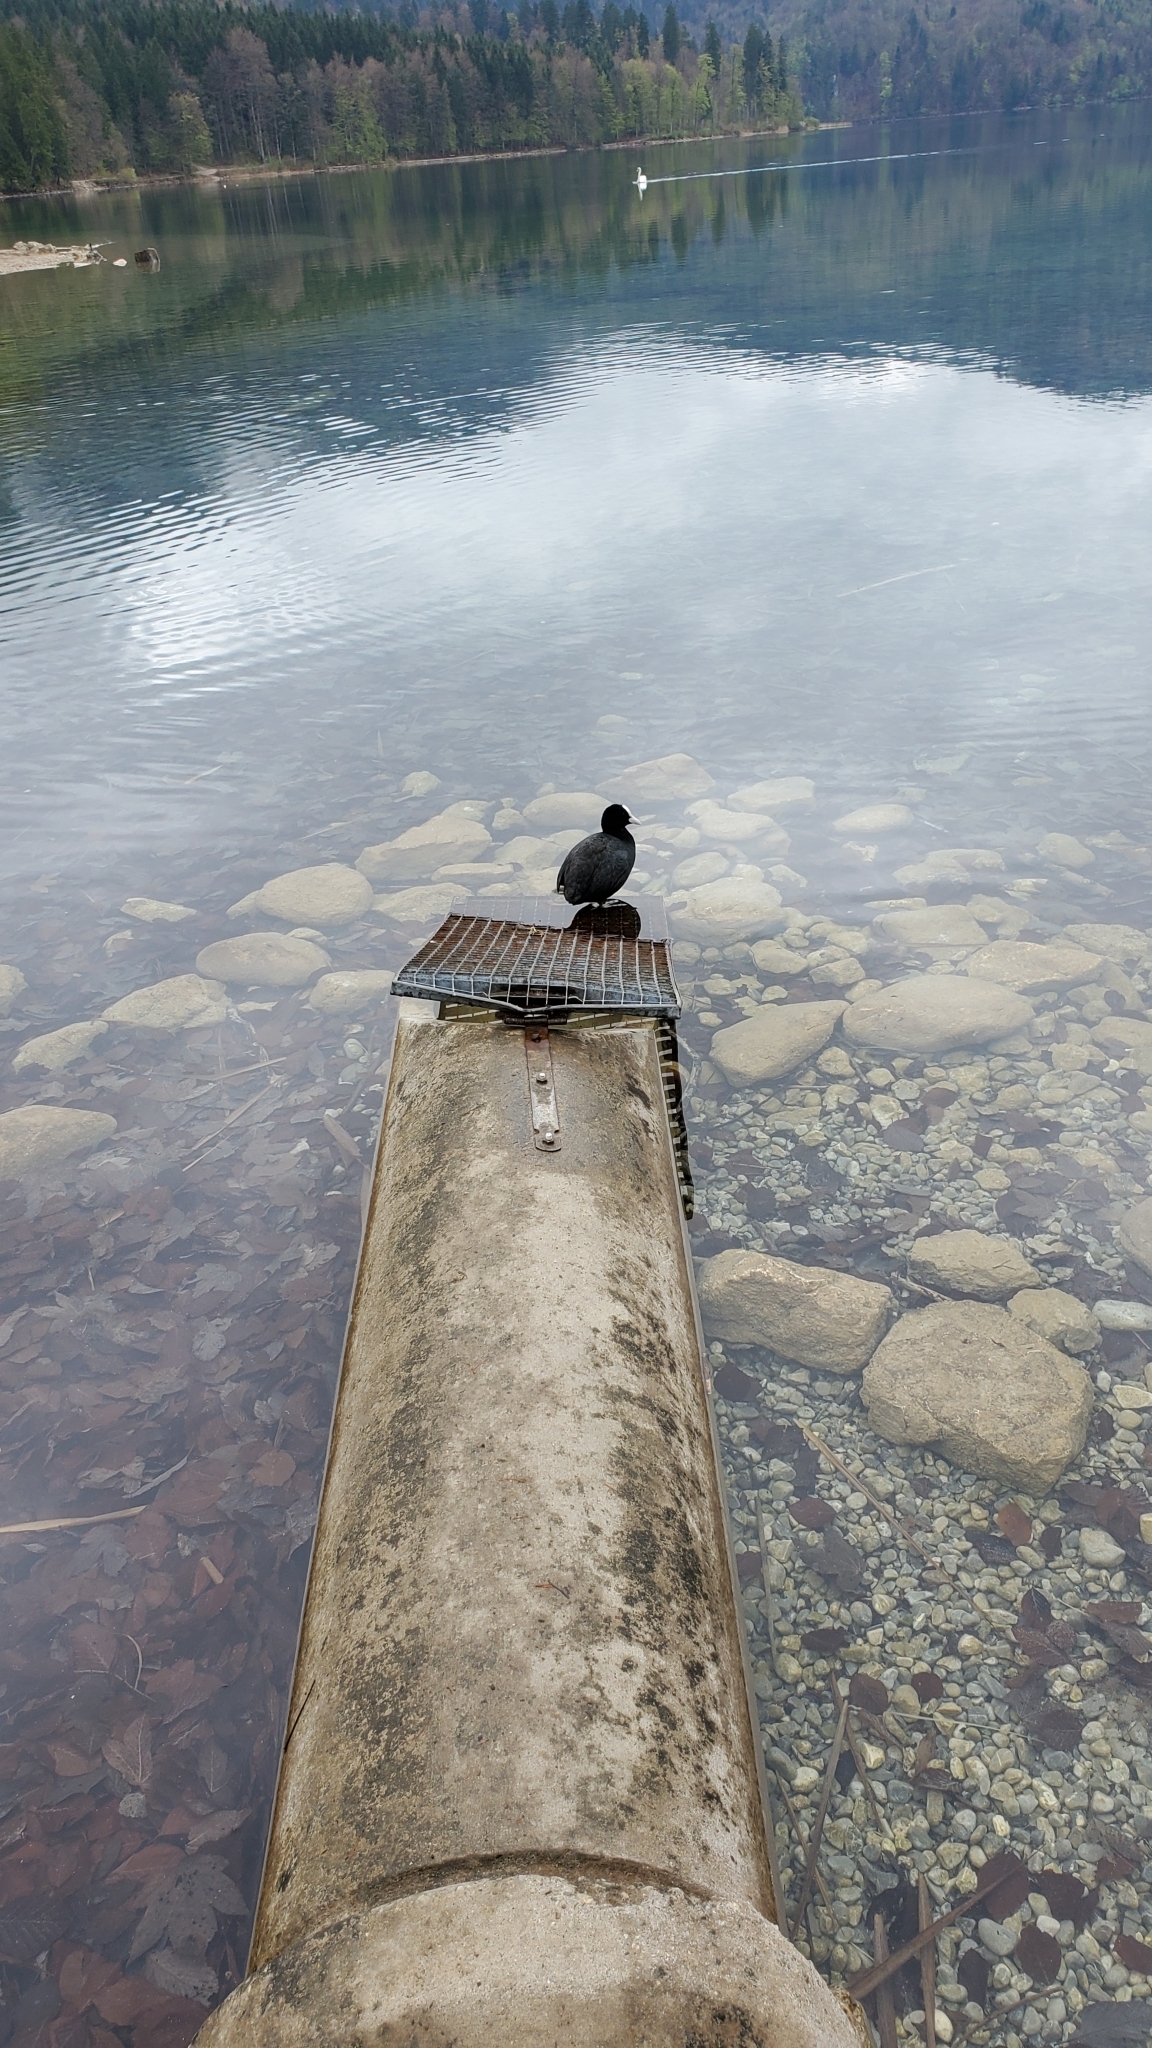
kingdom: Animalia
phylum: Chordata
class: Aves
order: Gruiformes
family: Rallidae
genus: Fulica
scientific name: Fulica atra
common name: Eurasian coot
